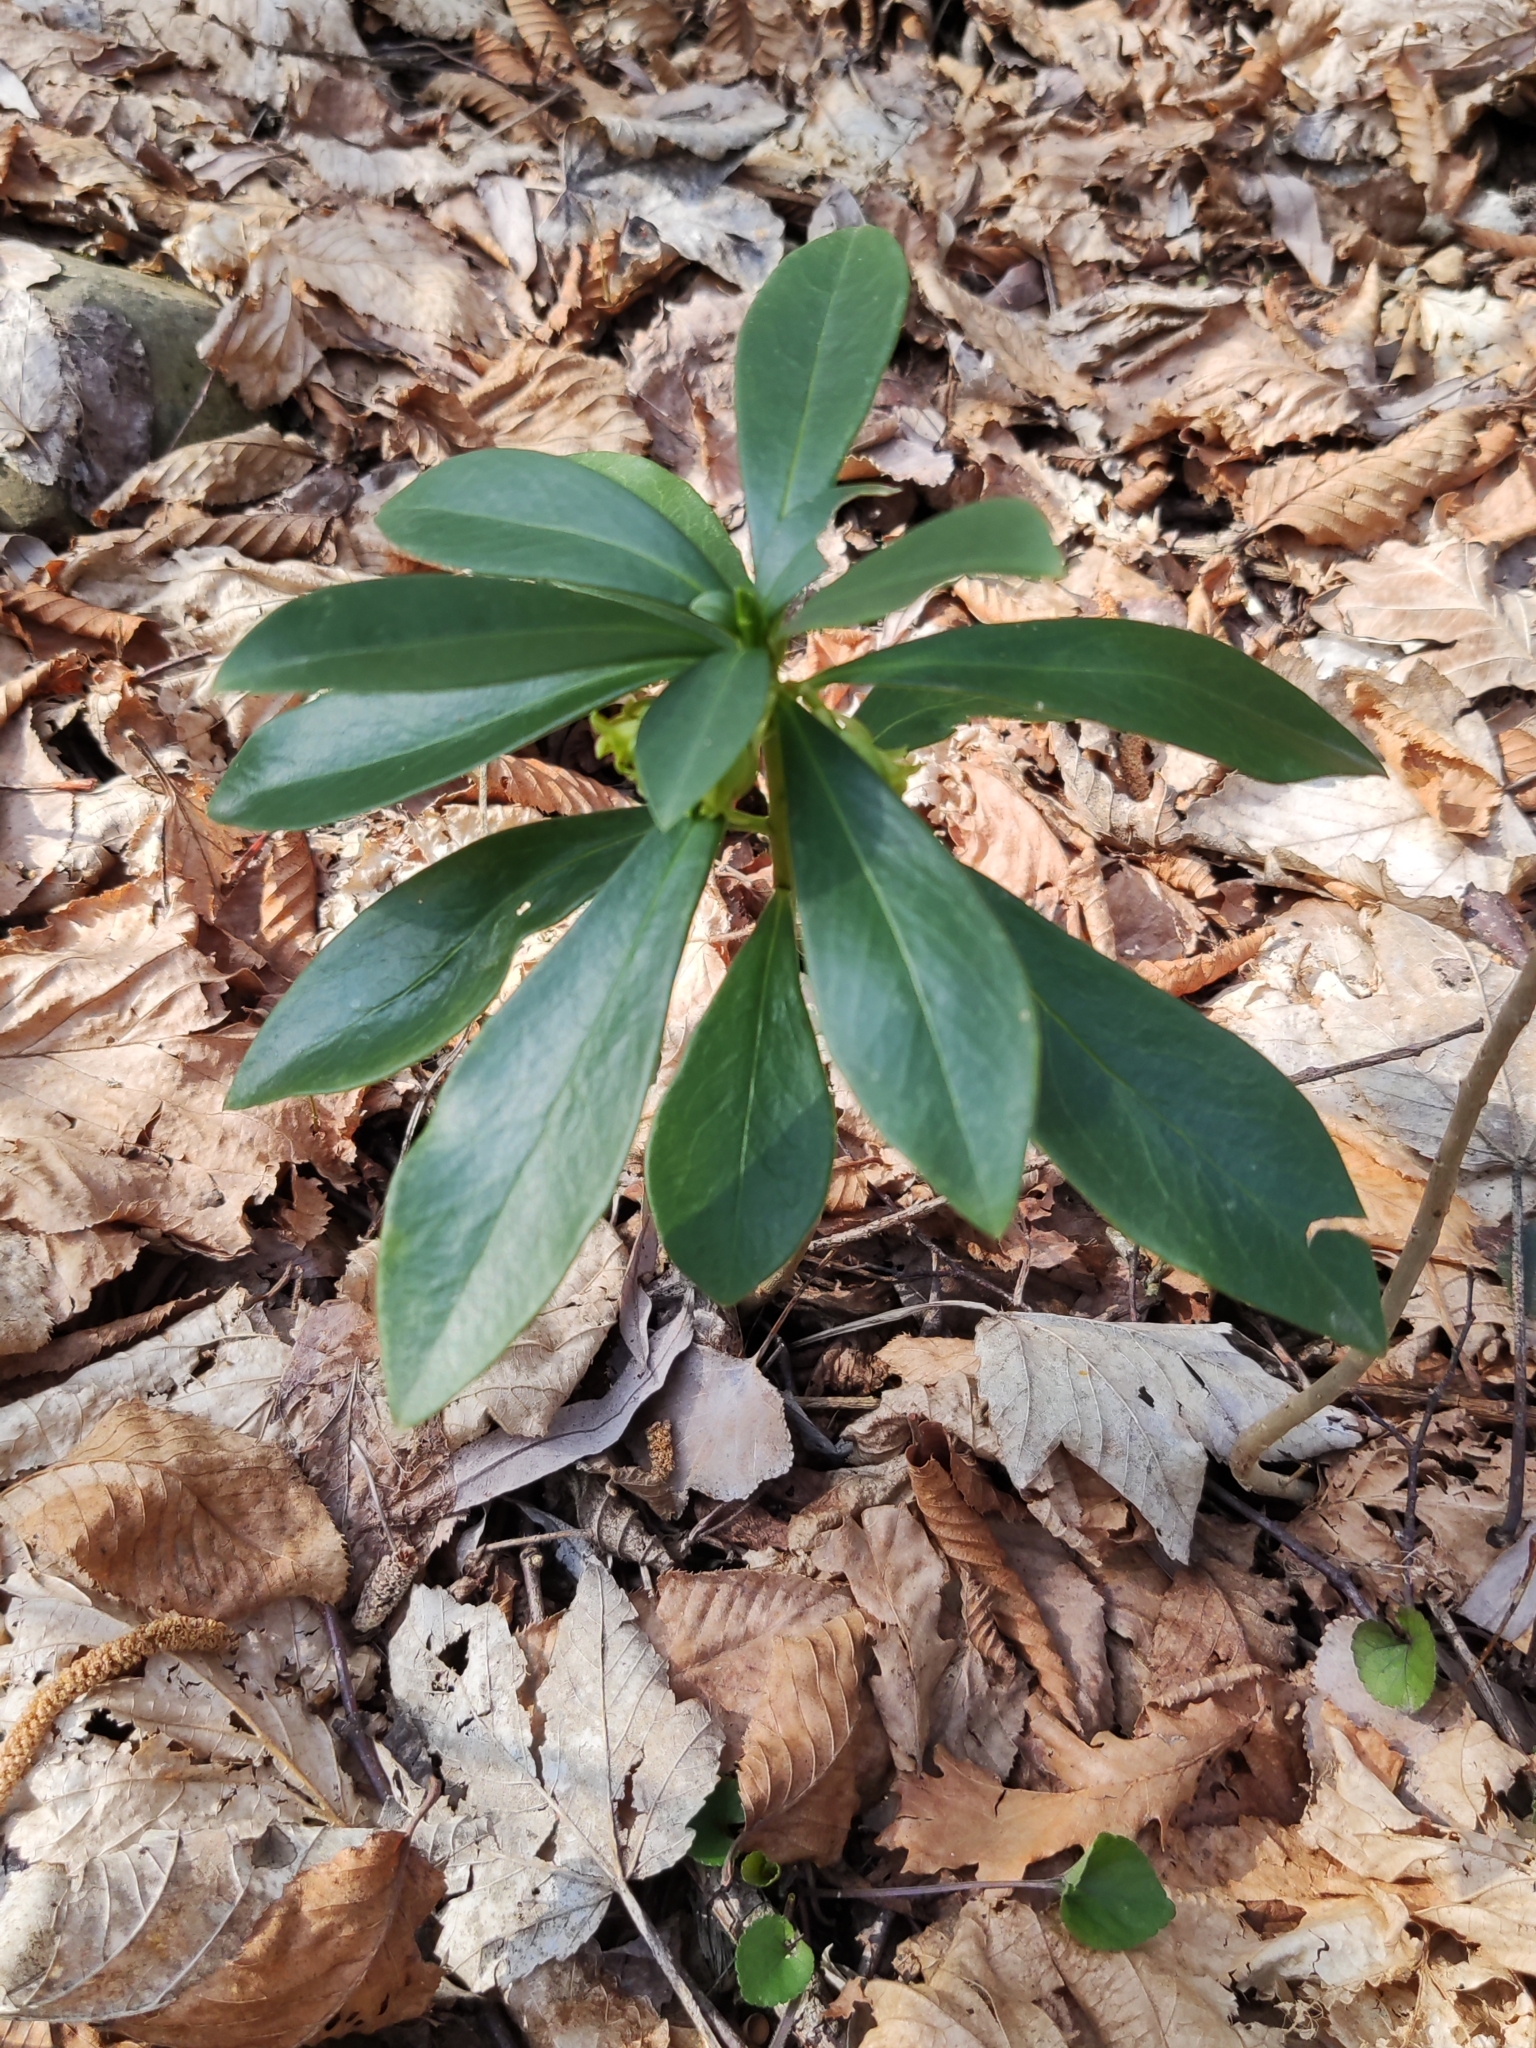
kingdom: Plantae
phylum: Tracheophyta
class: Magnoliopsida
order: Malvales
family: Thymelaeaceae
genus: Daphne
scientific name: Daphne laureola
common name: Spurge-laurel
